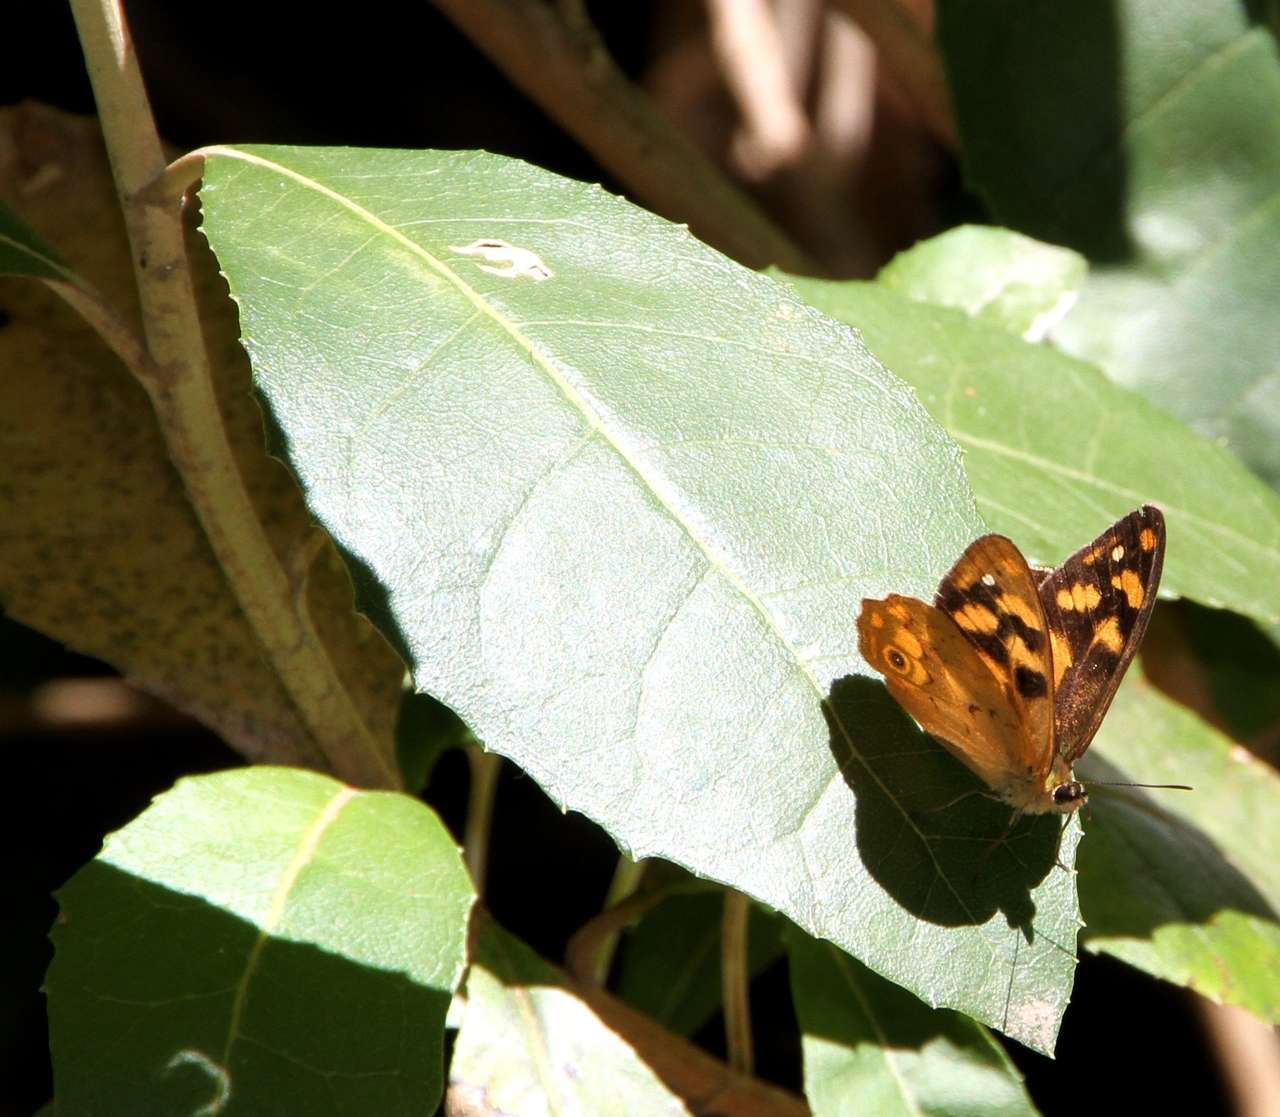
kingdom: Animalia
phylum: Arthropoda
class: Insecta
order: Lepidoptera
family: Nymphalidae
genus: Heteronympha
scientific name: Heteronympha solandri
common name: Solander's brown
